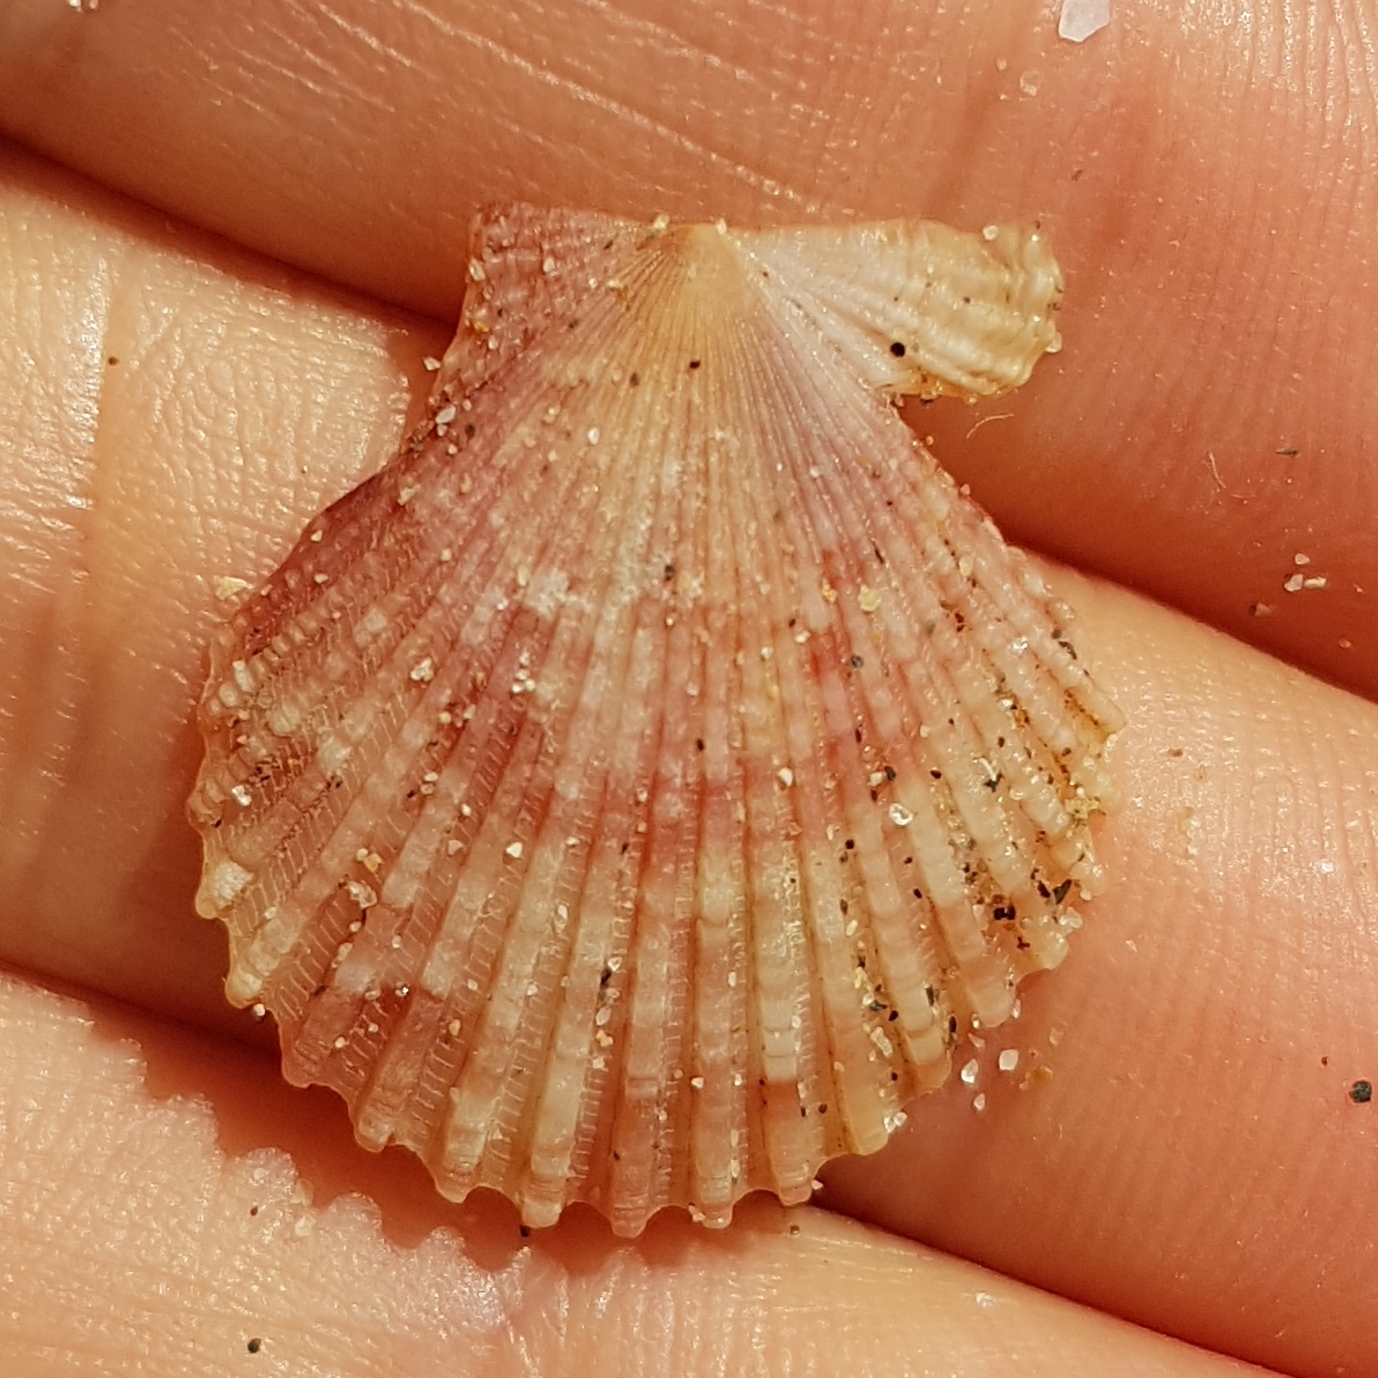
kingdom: Animalia
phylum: Mollusca
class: Bivalvia
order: Pectinida
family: Pectinidae
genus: Aequipecten
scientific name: Aequipecten opercularis
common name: Queen scallop
